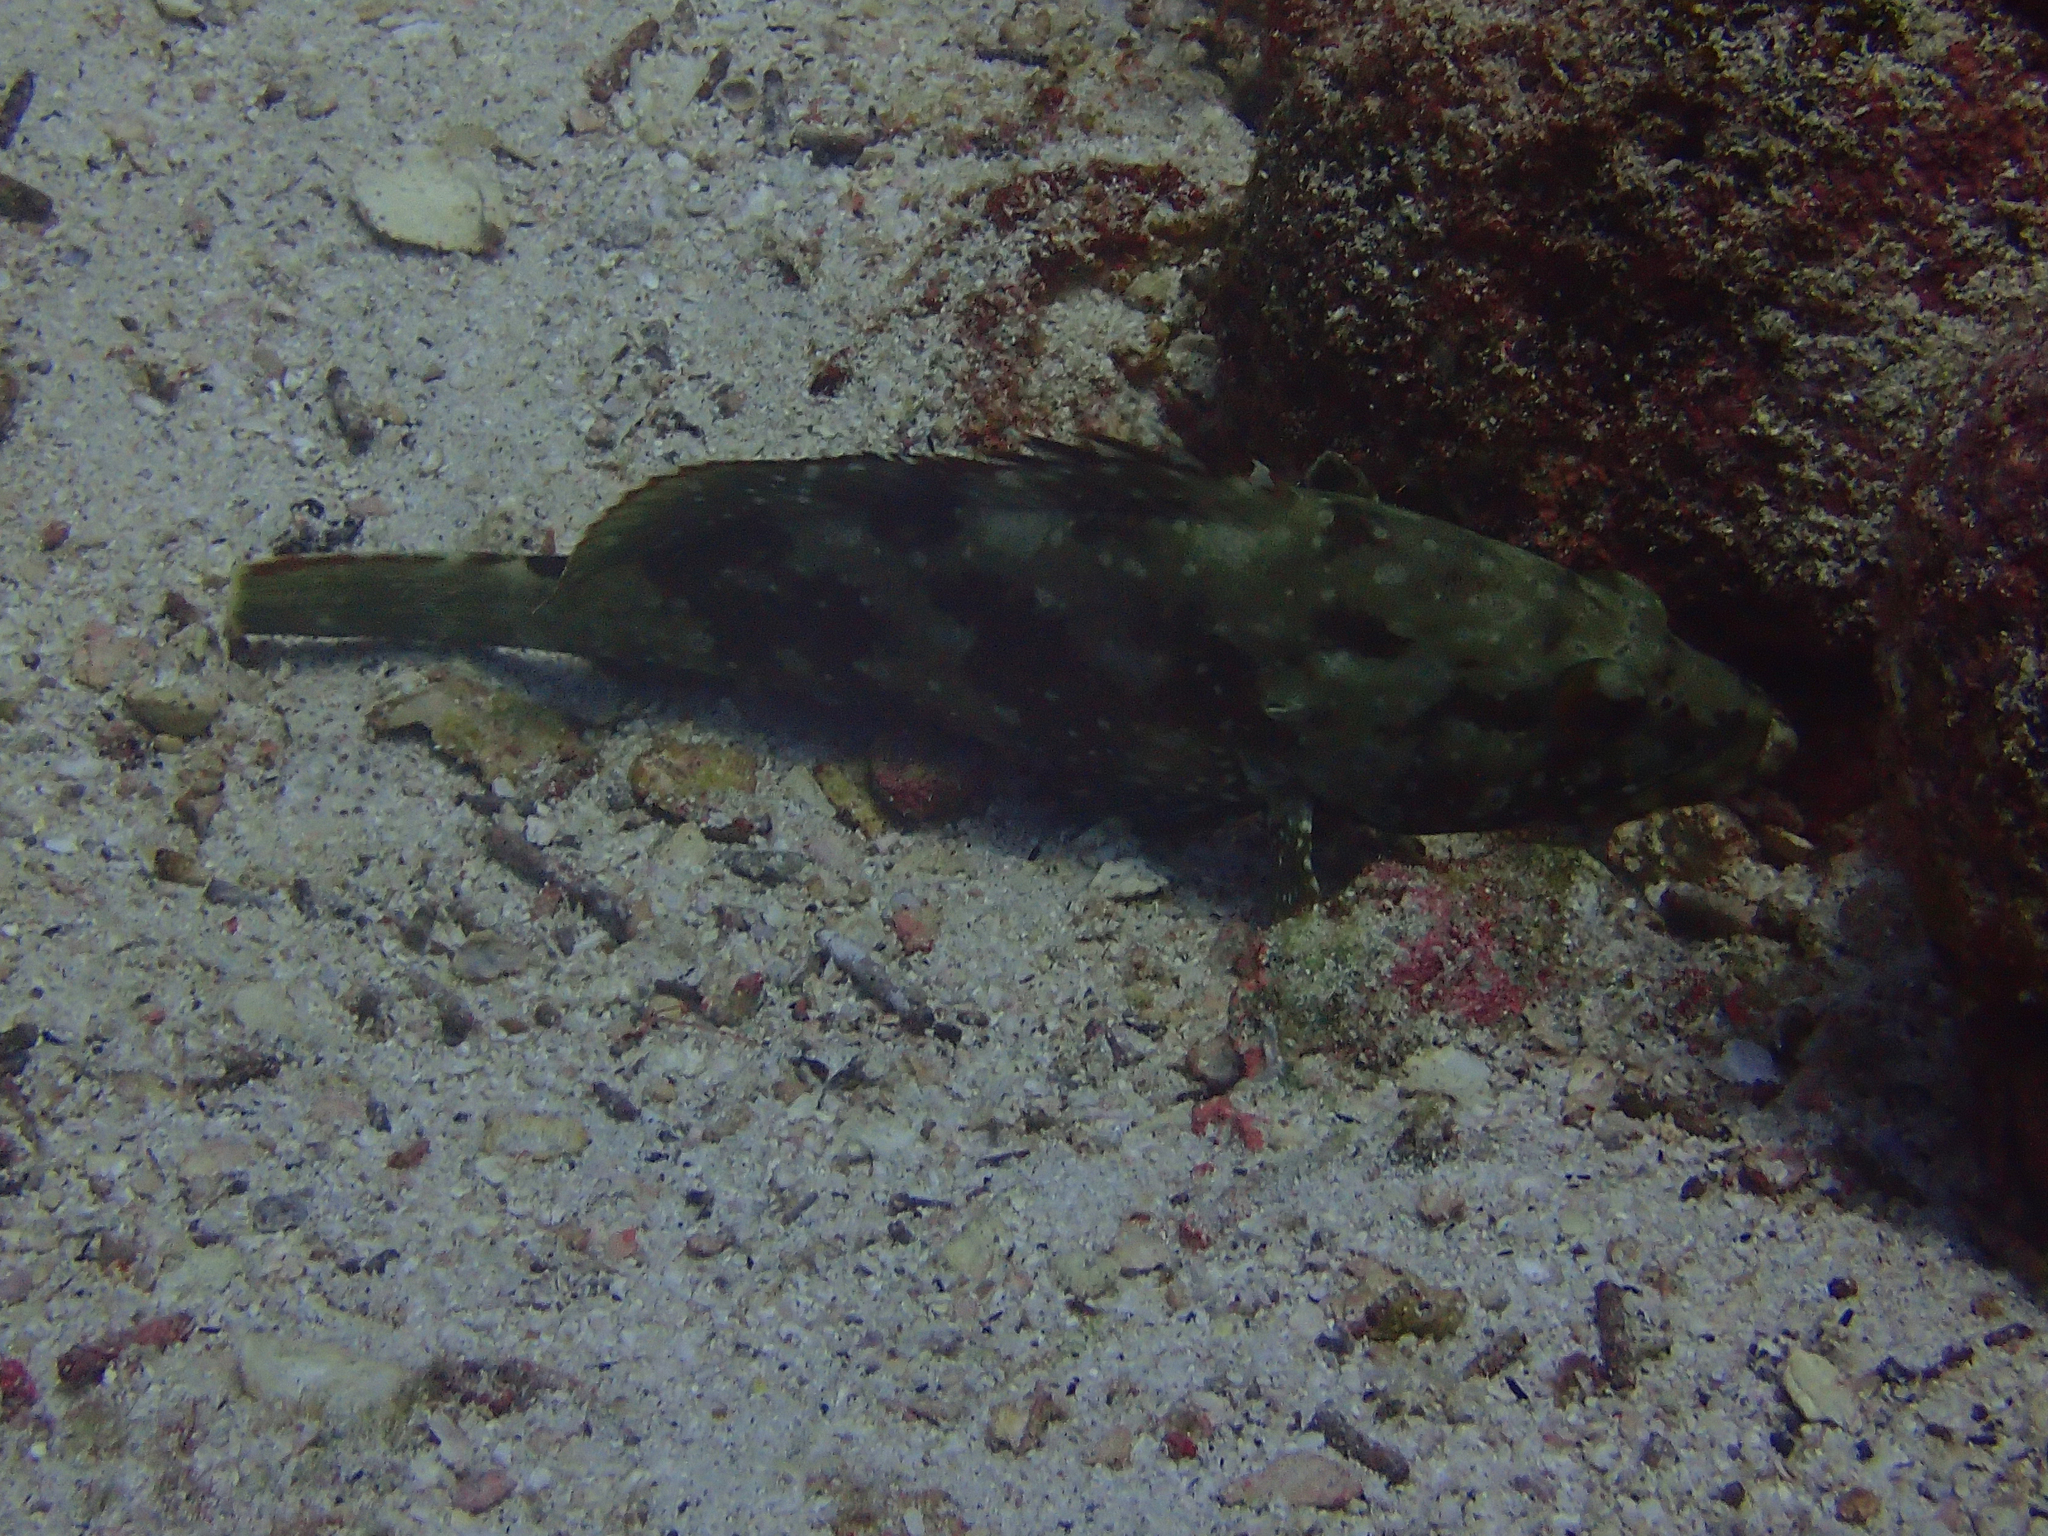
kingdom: Animalia
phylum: Chordata
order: Perciformes
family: Serranidae
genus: Epinephelus
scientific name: Epinephelus labriformis
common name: Flag cabrilla
